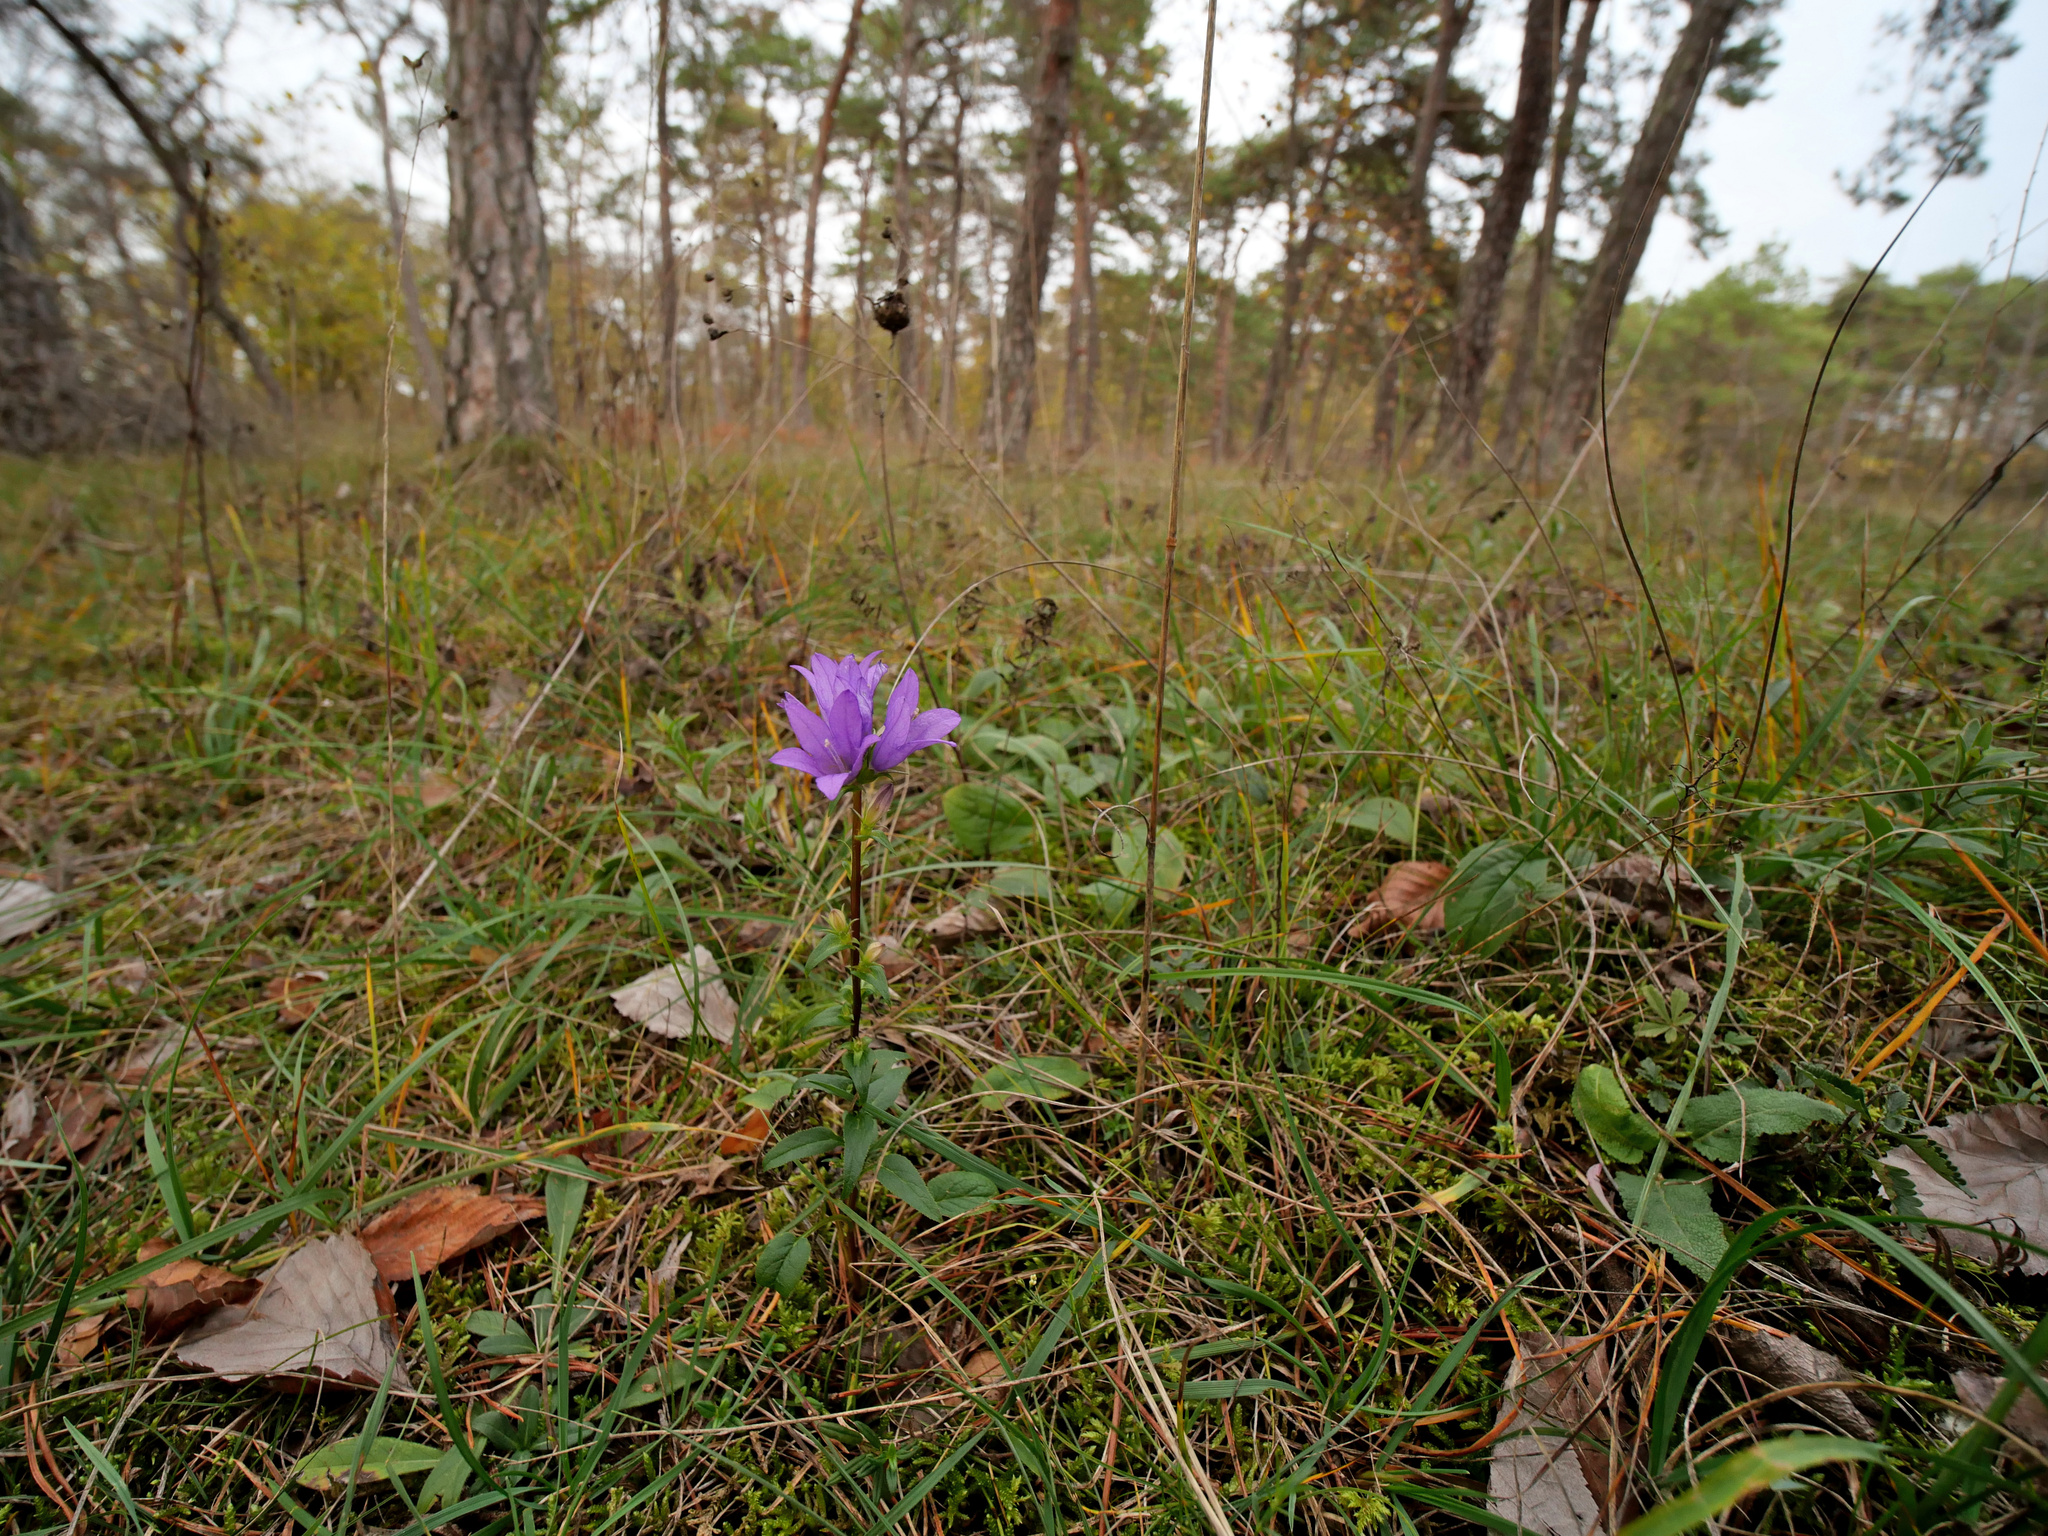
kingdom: Plantae
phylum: Tracheophyta
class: Magnoliopsida
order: Asterales
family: Campanulaceae
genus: Campanula
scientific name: Campanula glomerata
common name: Clustered bellflower
